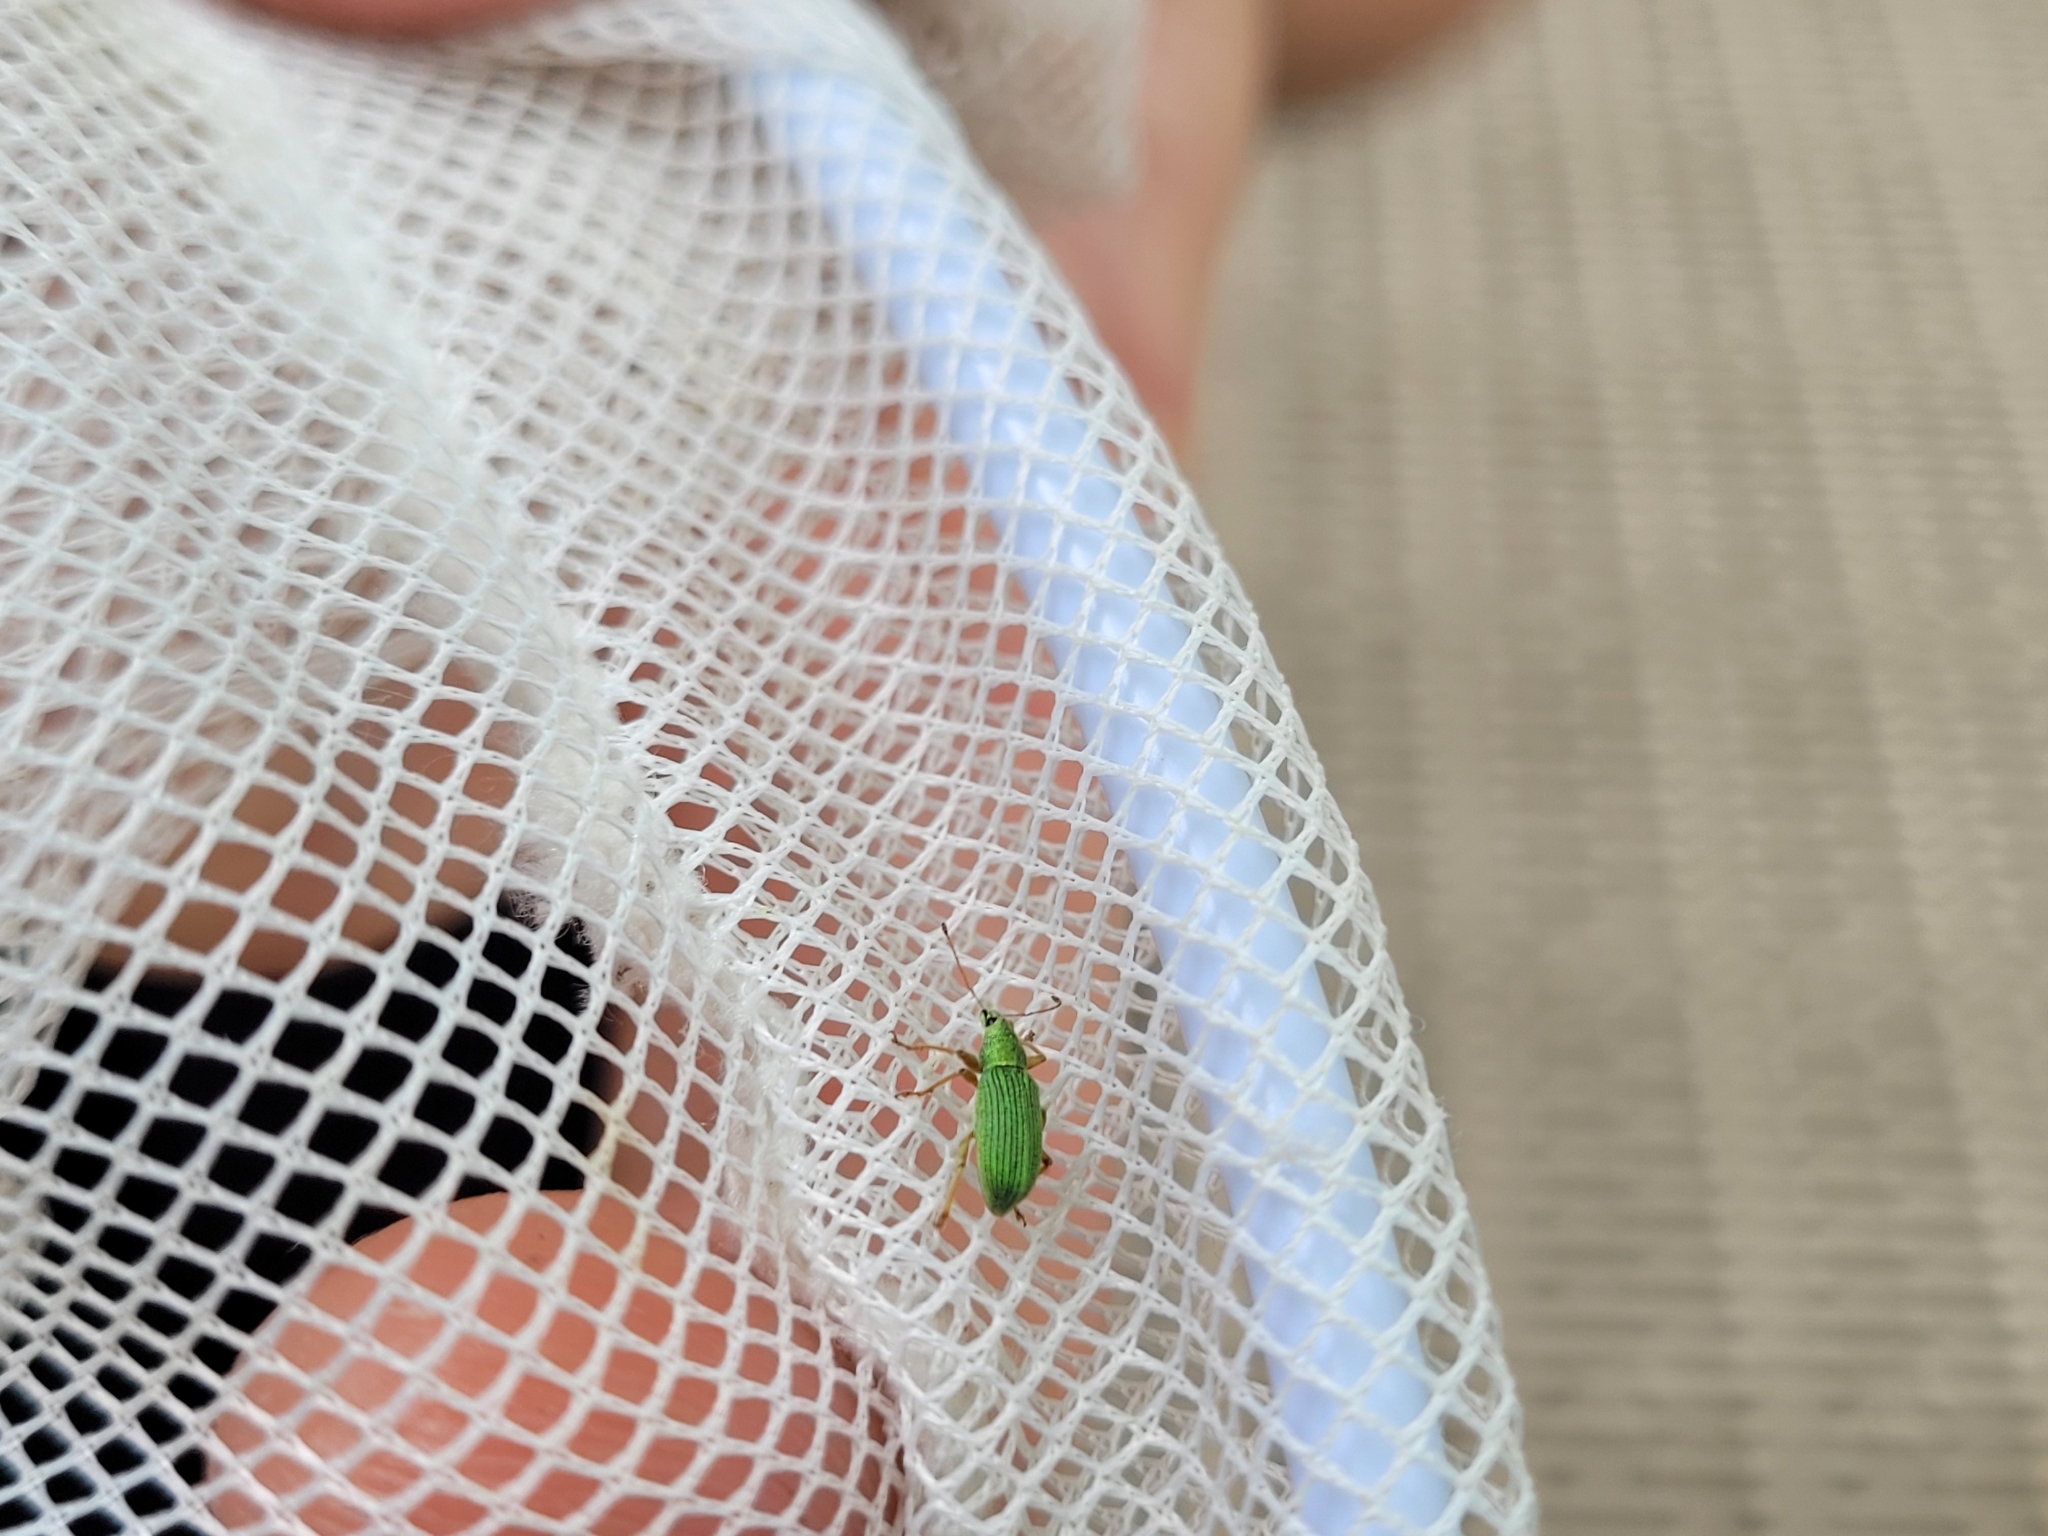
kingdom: Animalia
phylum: Arthropoda
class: Insecta
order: Coleoptera
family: Curculionidae
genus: Polydrusus
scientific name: Polydrusus formosus
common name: Weevil
